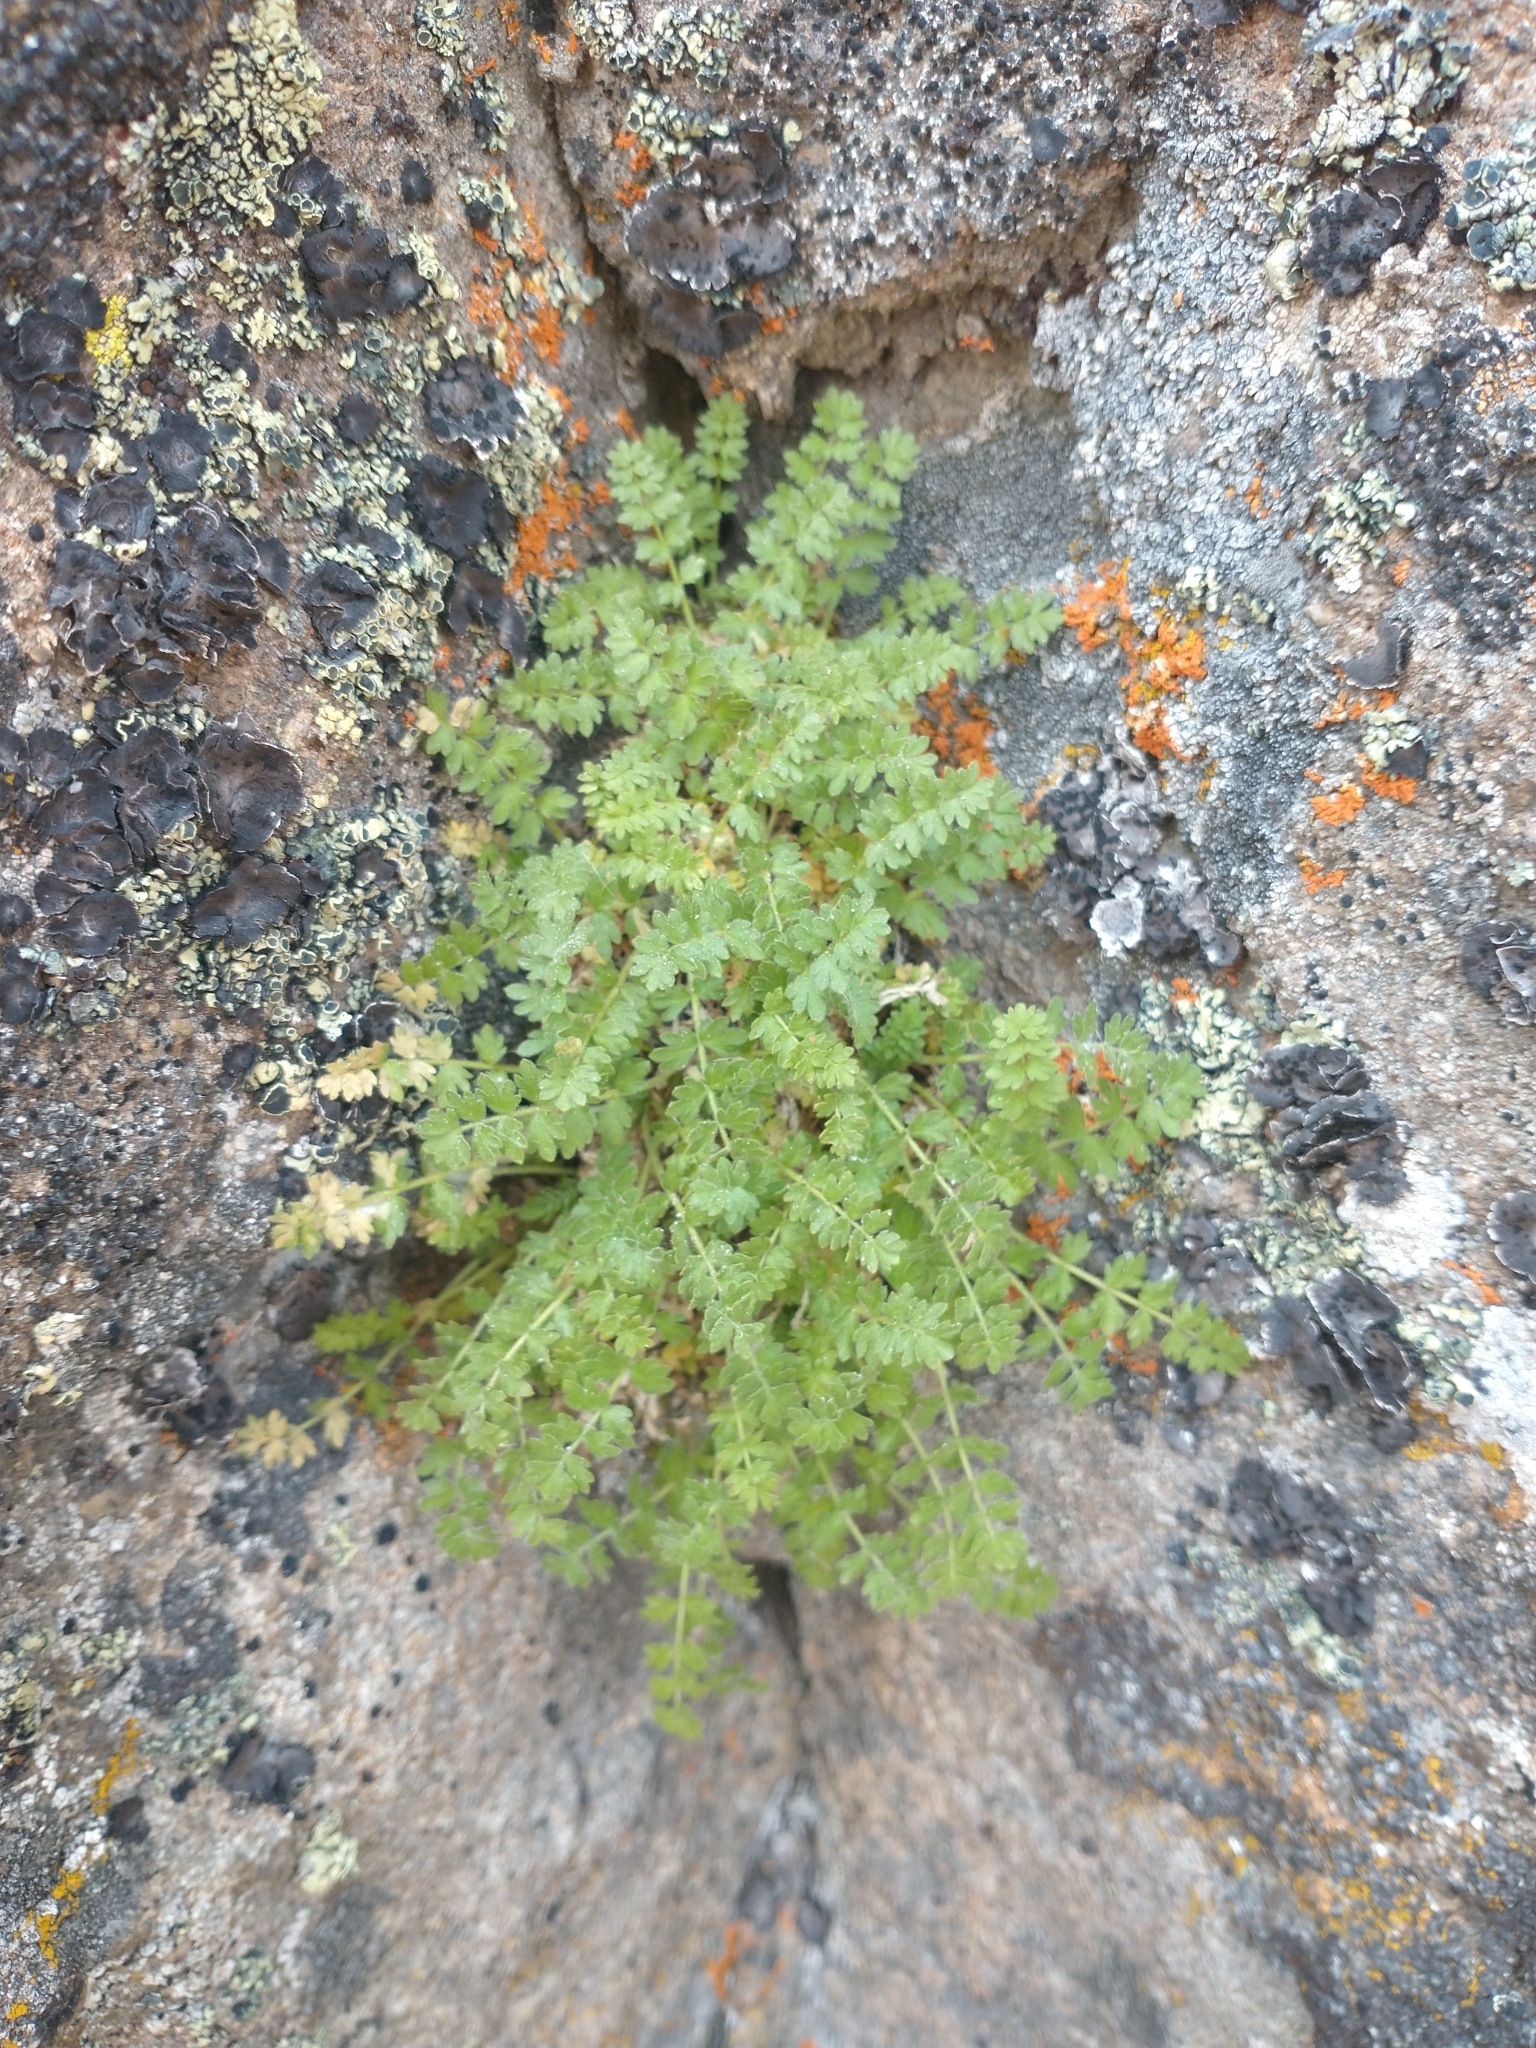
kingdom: Plantae
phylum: Tracheophyta
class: Magnoliopsida
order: Rosales
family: Rosaceae
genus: Potentilla
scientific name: Potentilla baileyi
